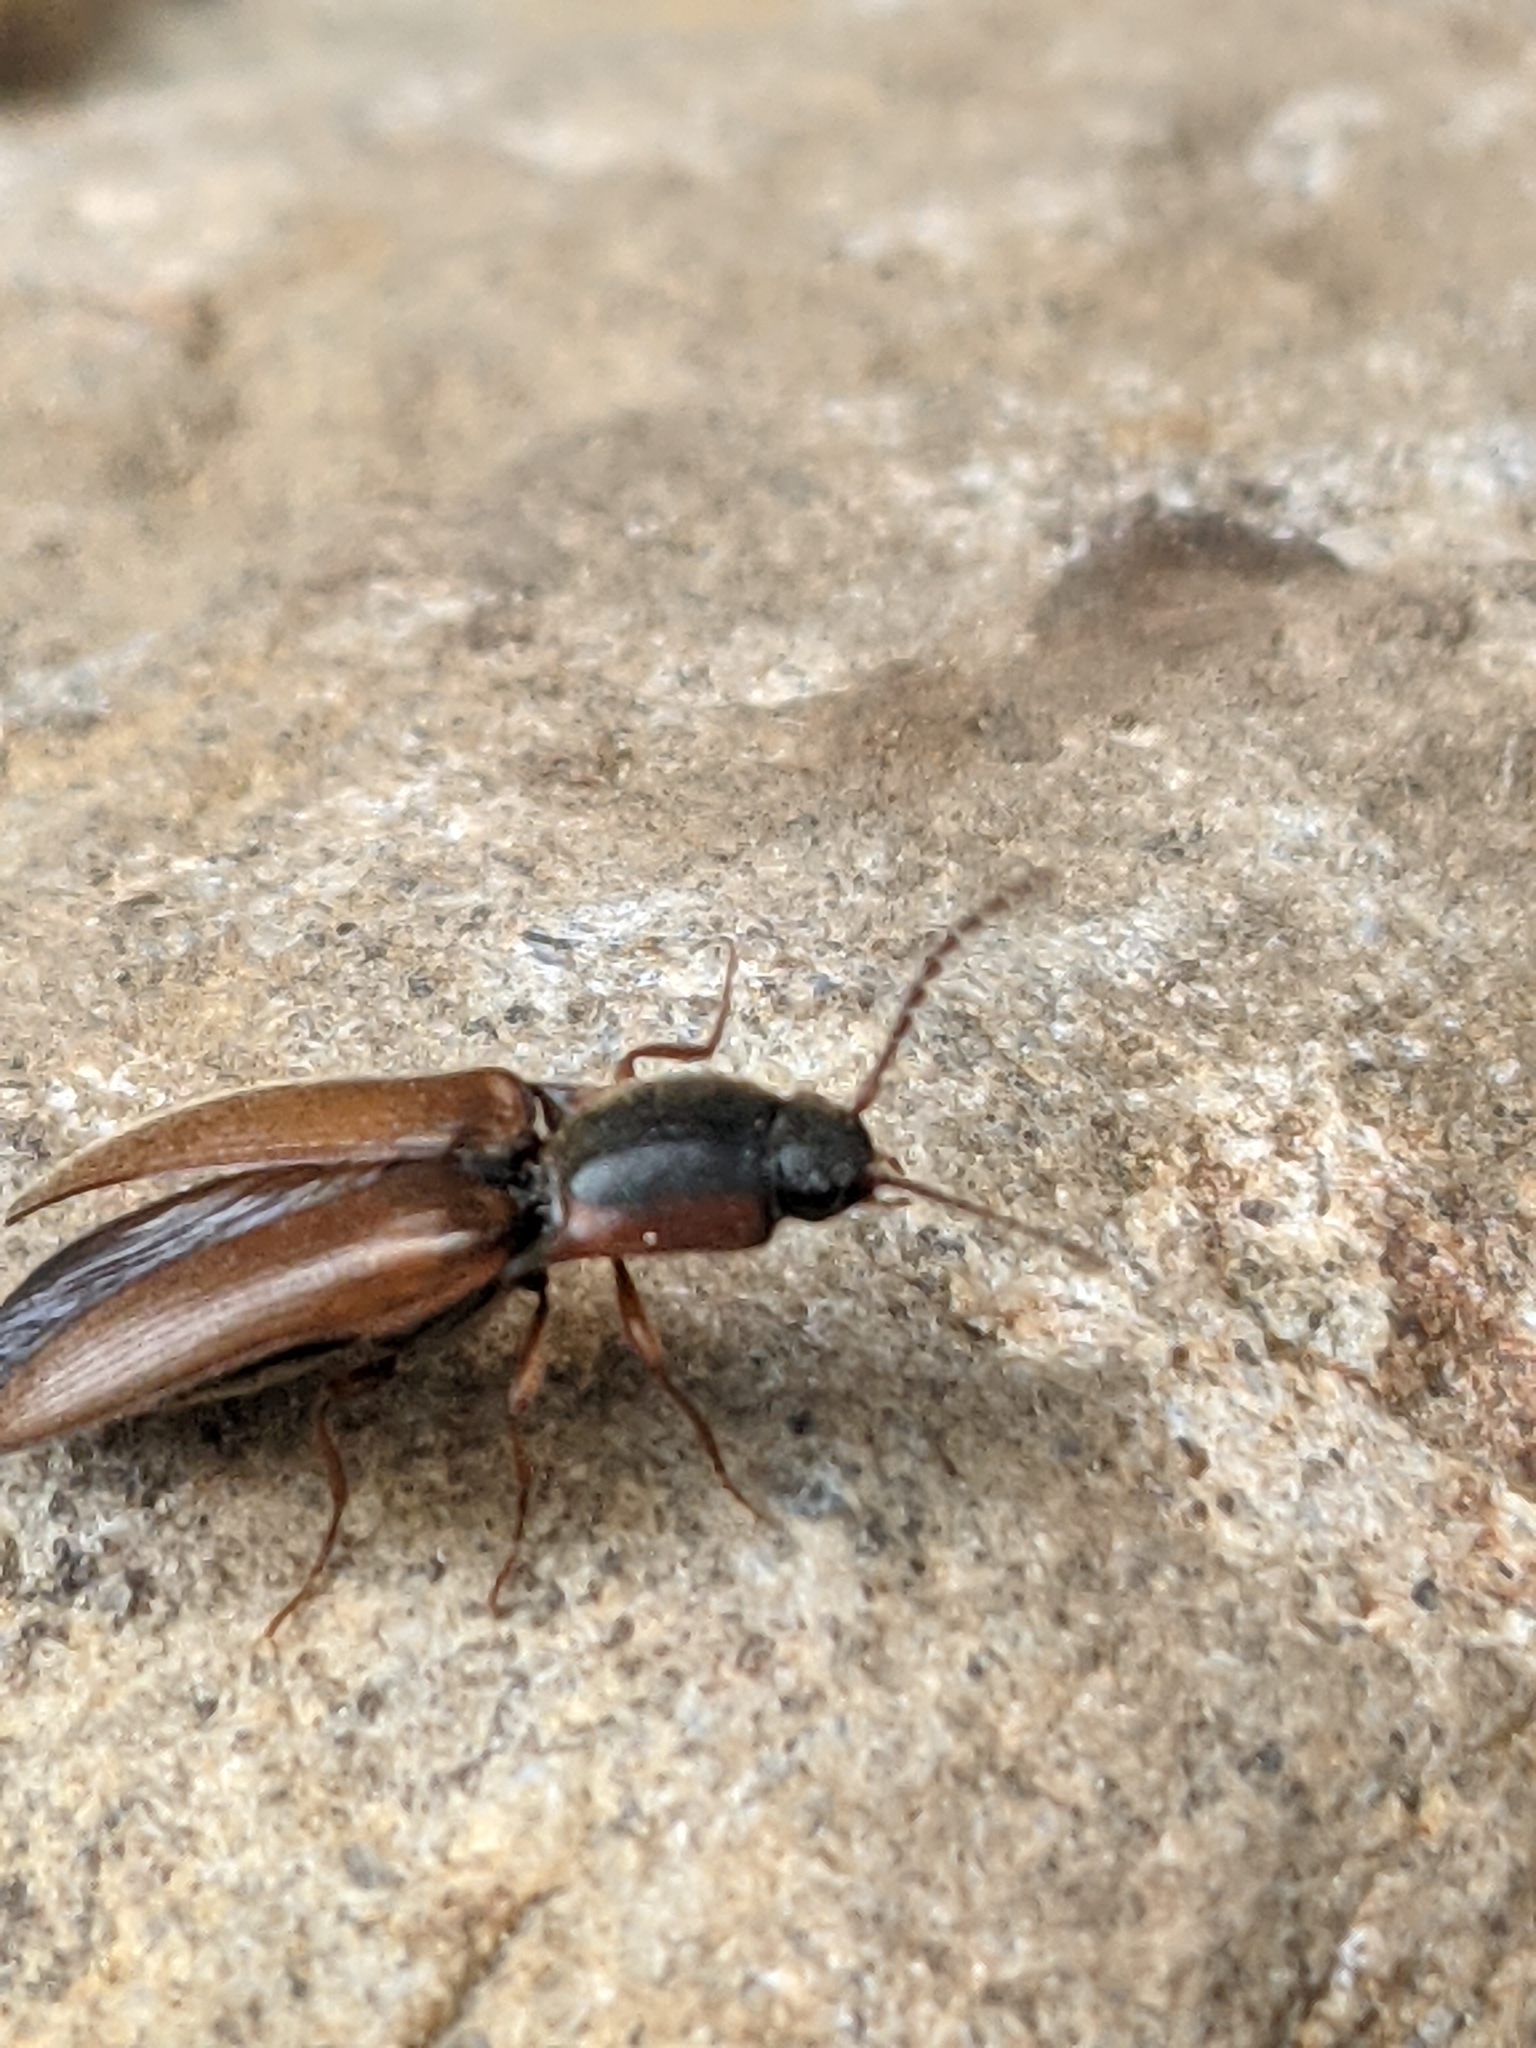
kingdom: Animalia
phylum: Arthropoda
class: Insecta
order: Coleoptera
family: Elateridae
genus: Agriotes
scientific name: Agriotes collaris
